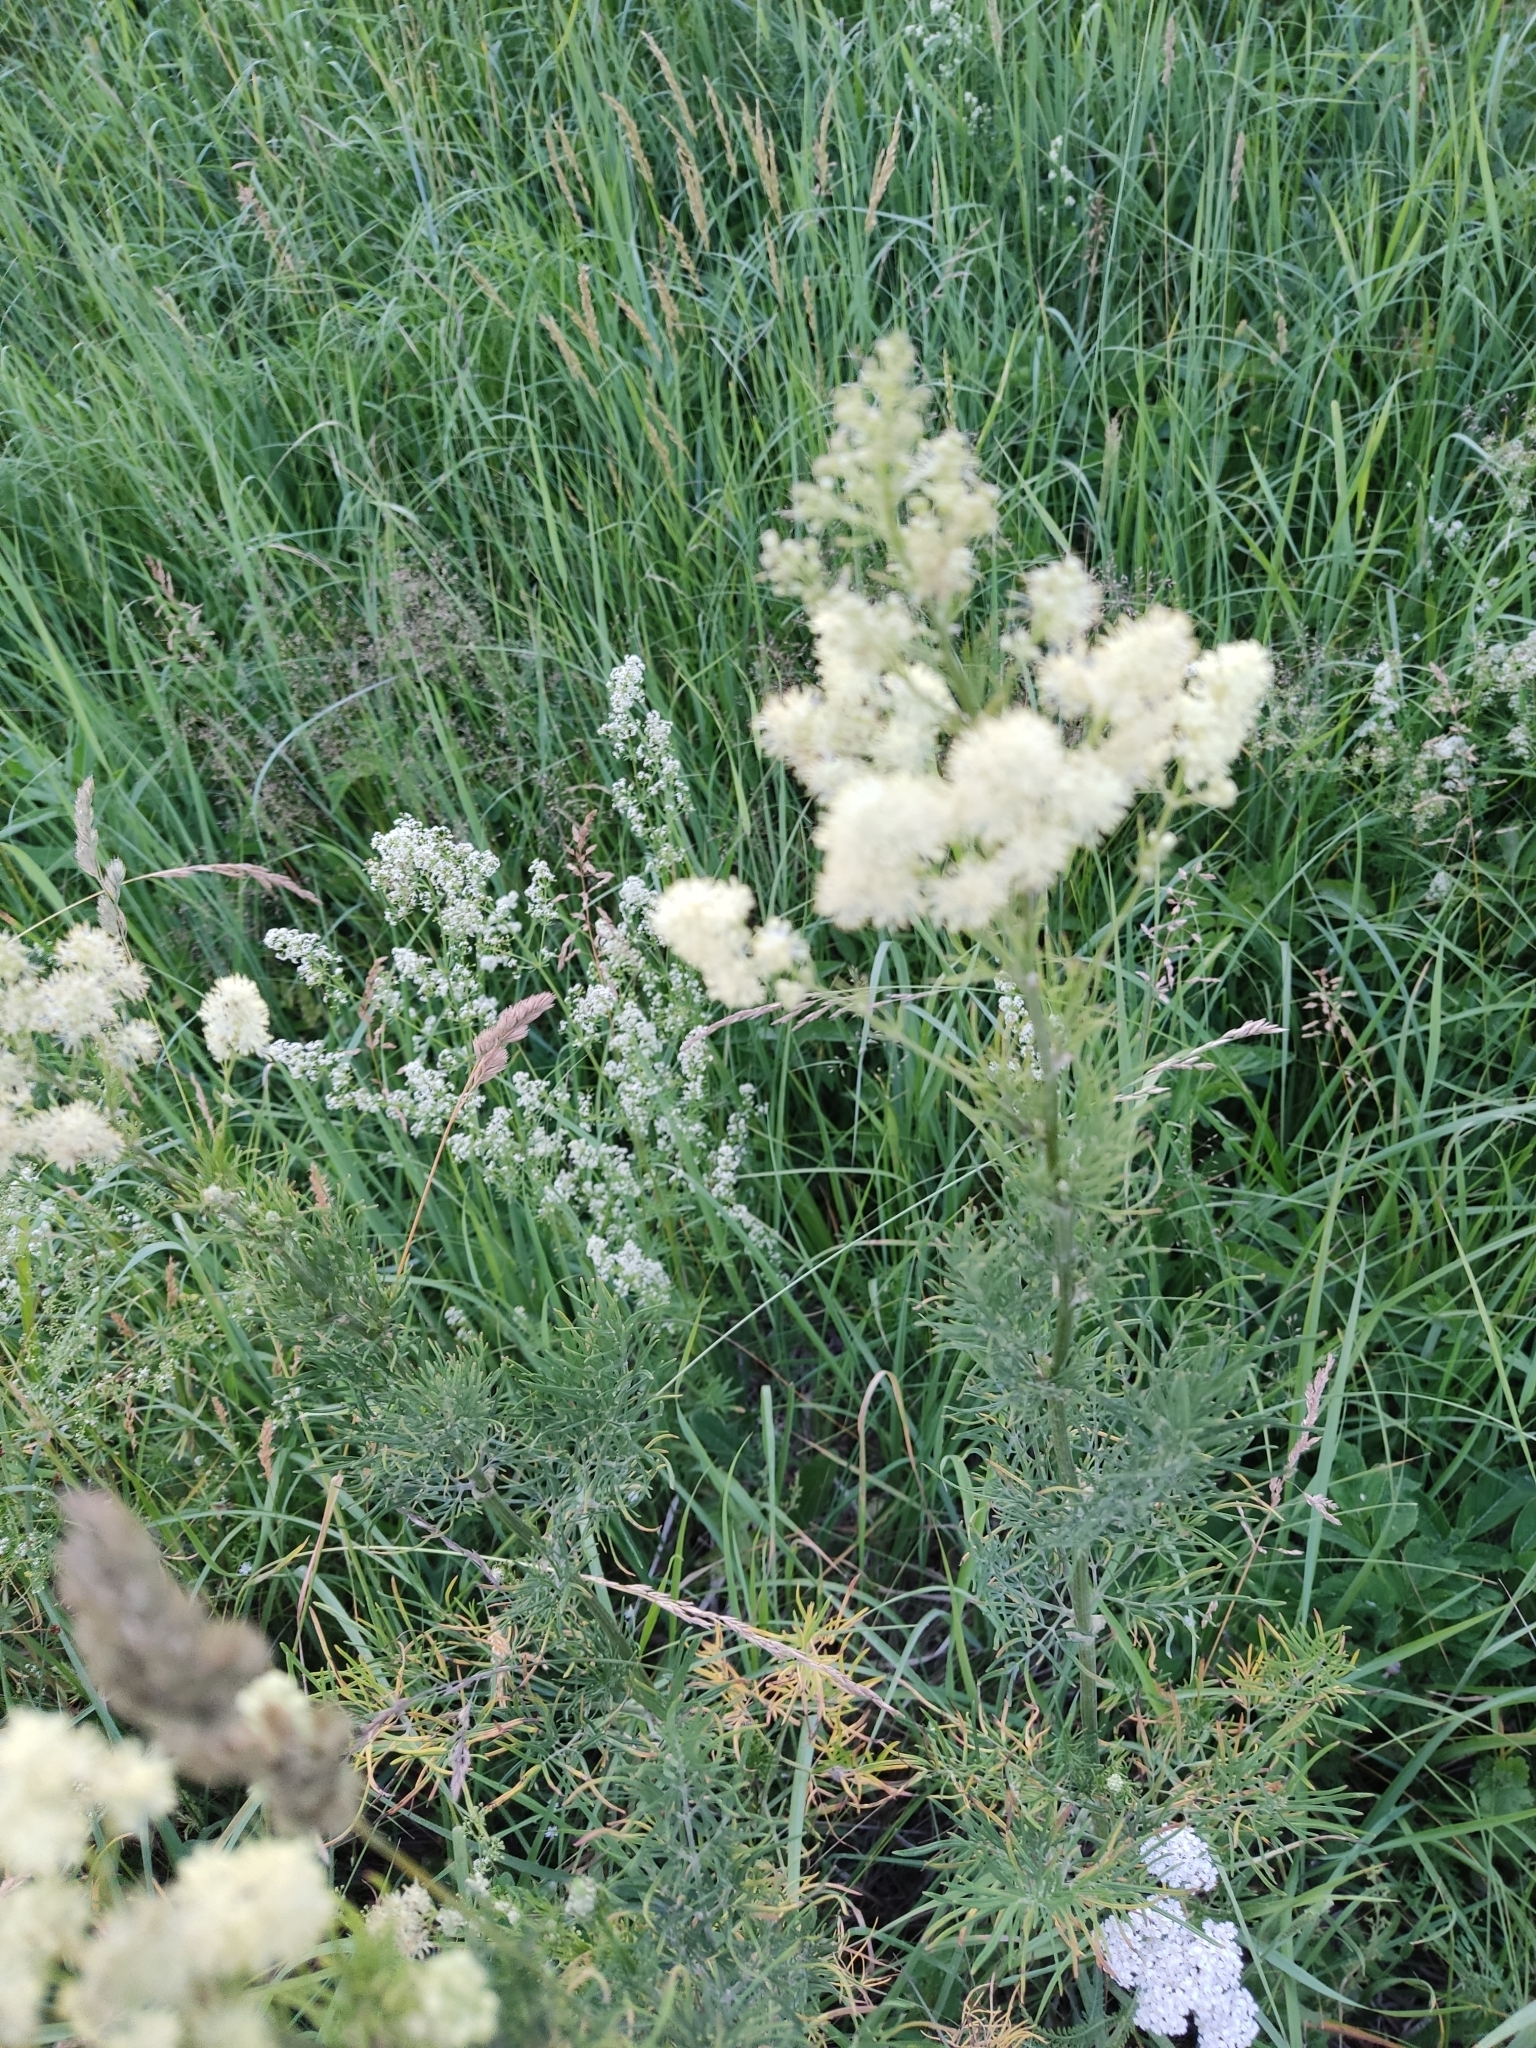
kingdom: Plantae
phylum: Tracheophyta
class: Magnoliopsida
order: Ranunculales
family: Ranunculaceae
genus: Thalictrum
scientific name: Thalictrum lucidum
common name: Shining meadow-rue
